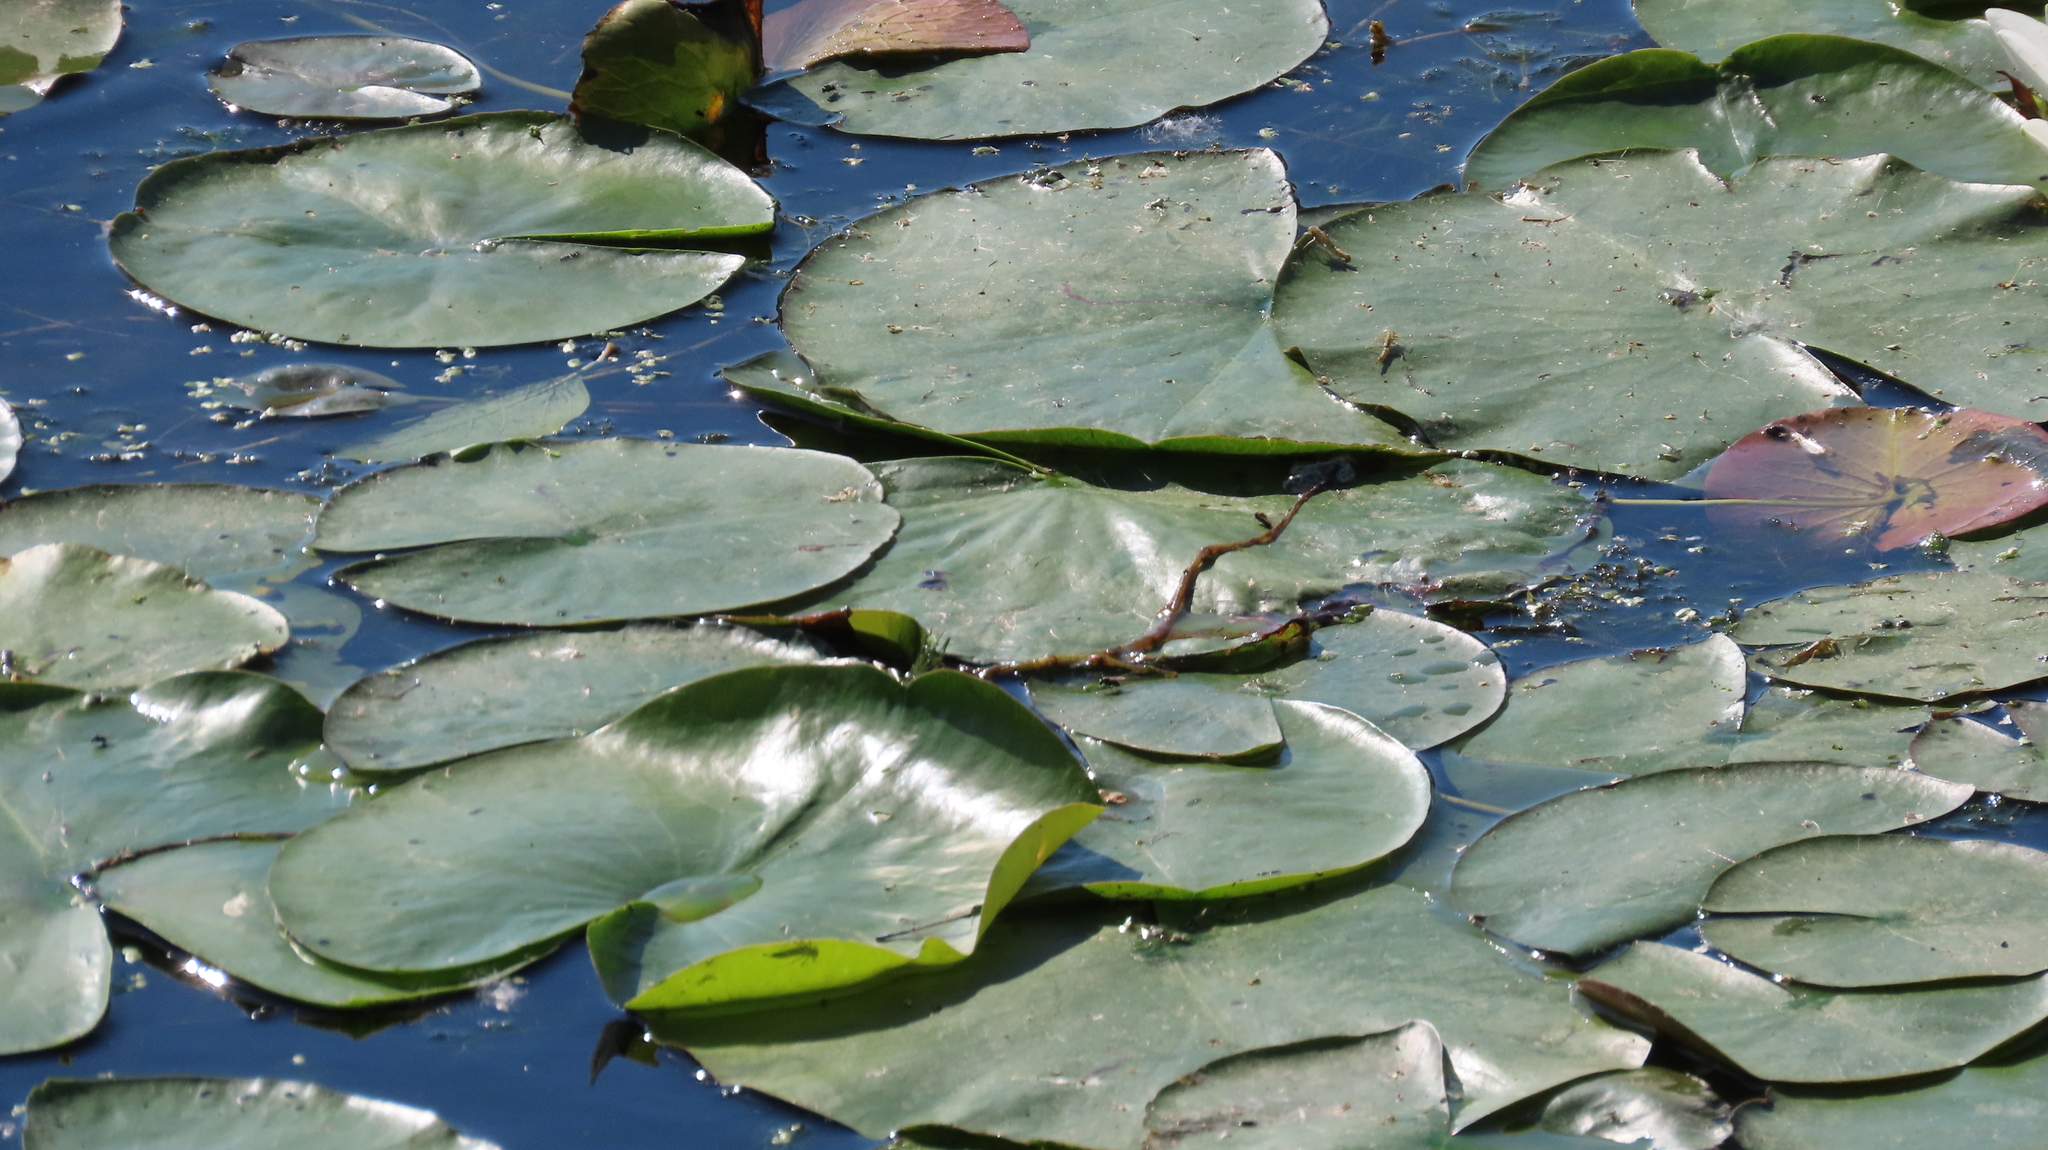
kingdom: Plantae
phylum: Tracheophyta
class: Magnoliopsida
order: Nymphaeales
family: Nymphaeaceae
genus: Nymphaea
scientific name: Nymphaea odorata
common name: Fragrant water-lily
